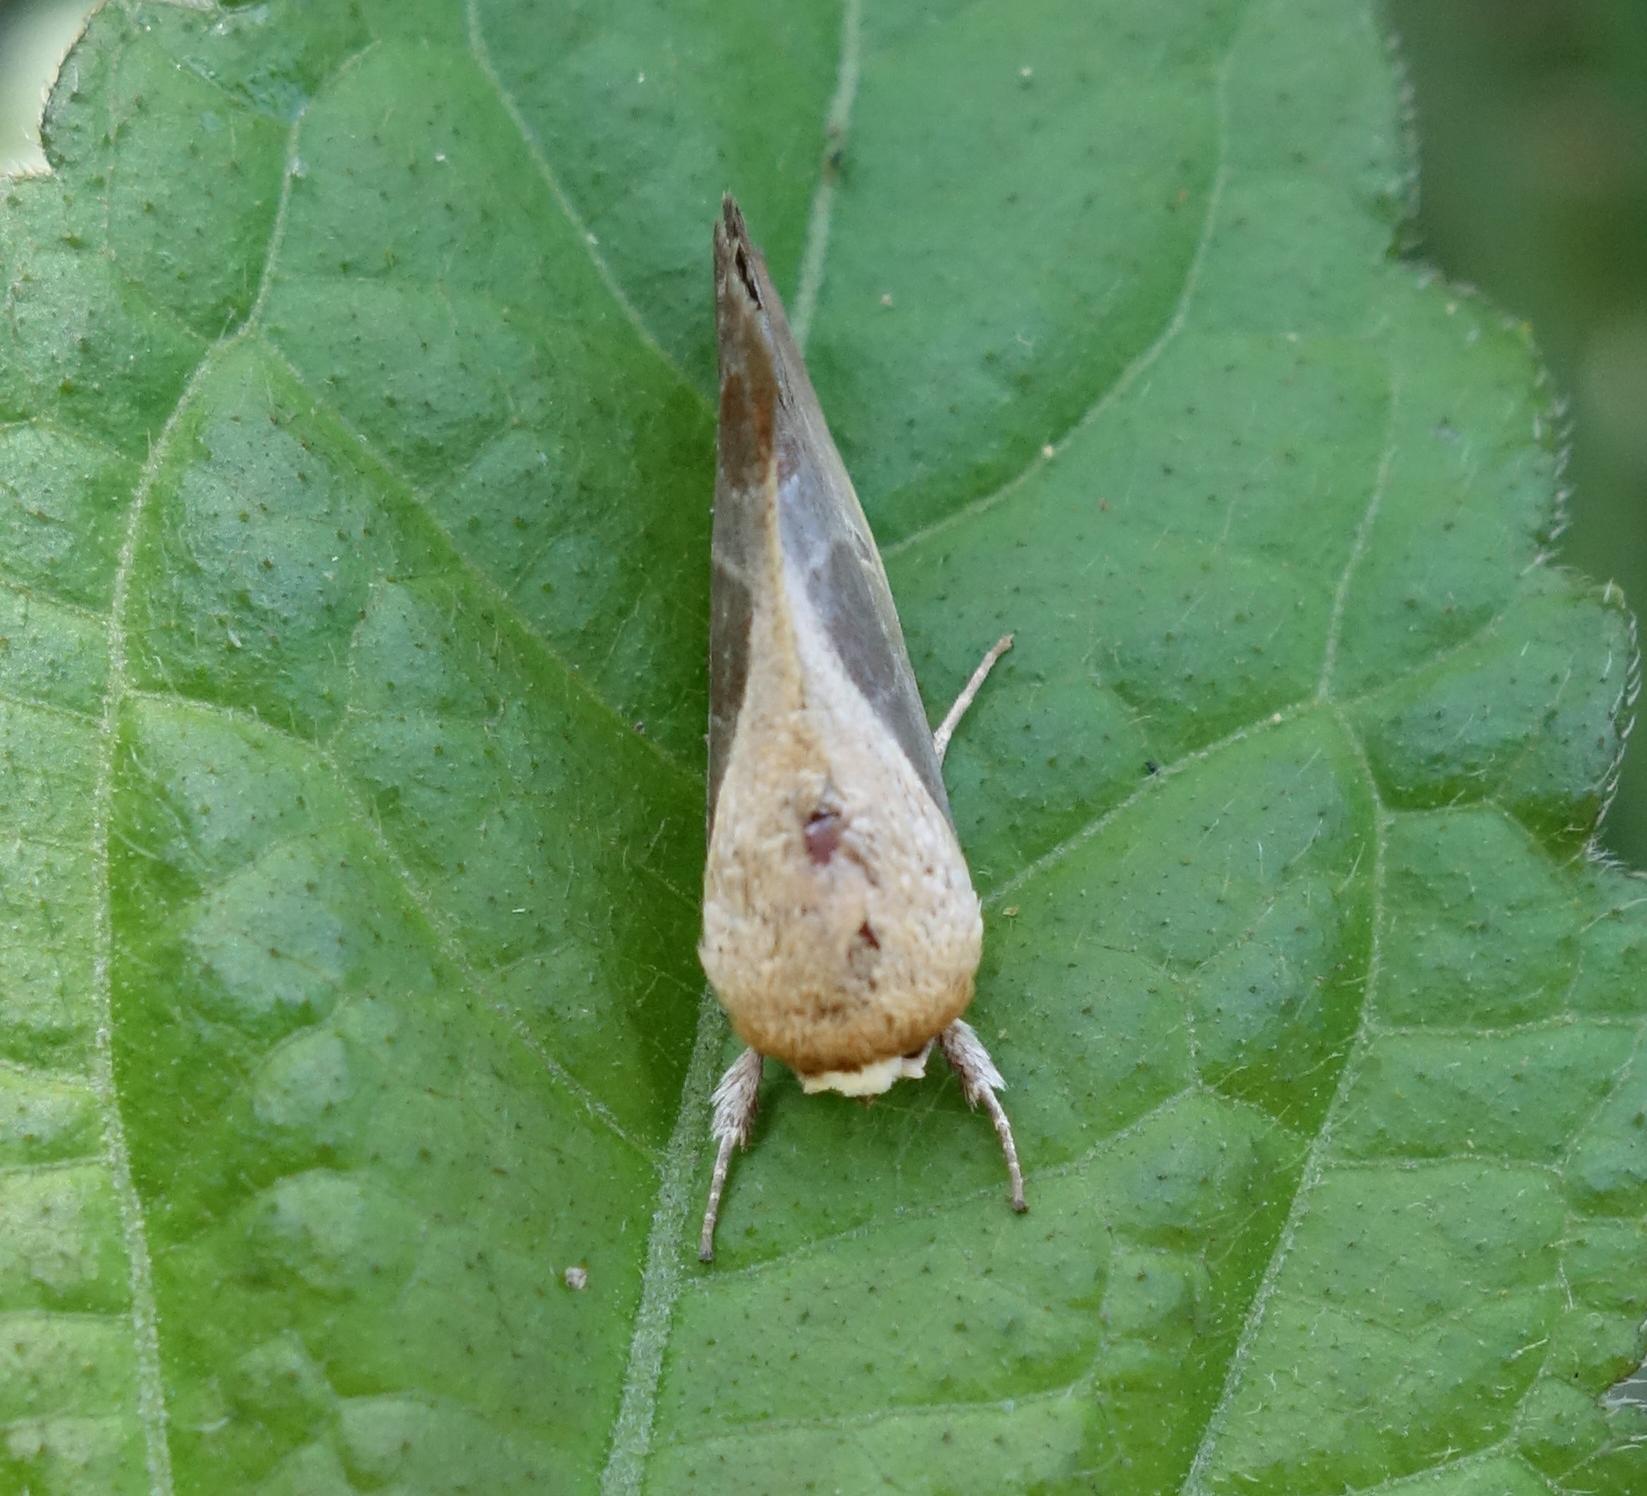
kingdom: Animalia
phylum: Arthropoda
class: Insecta
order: Lepidoptera
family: Nolidae
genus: Westermannia
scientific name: Westermannia elliptica
